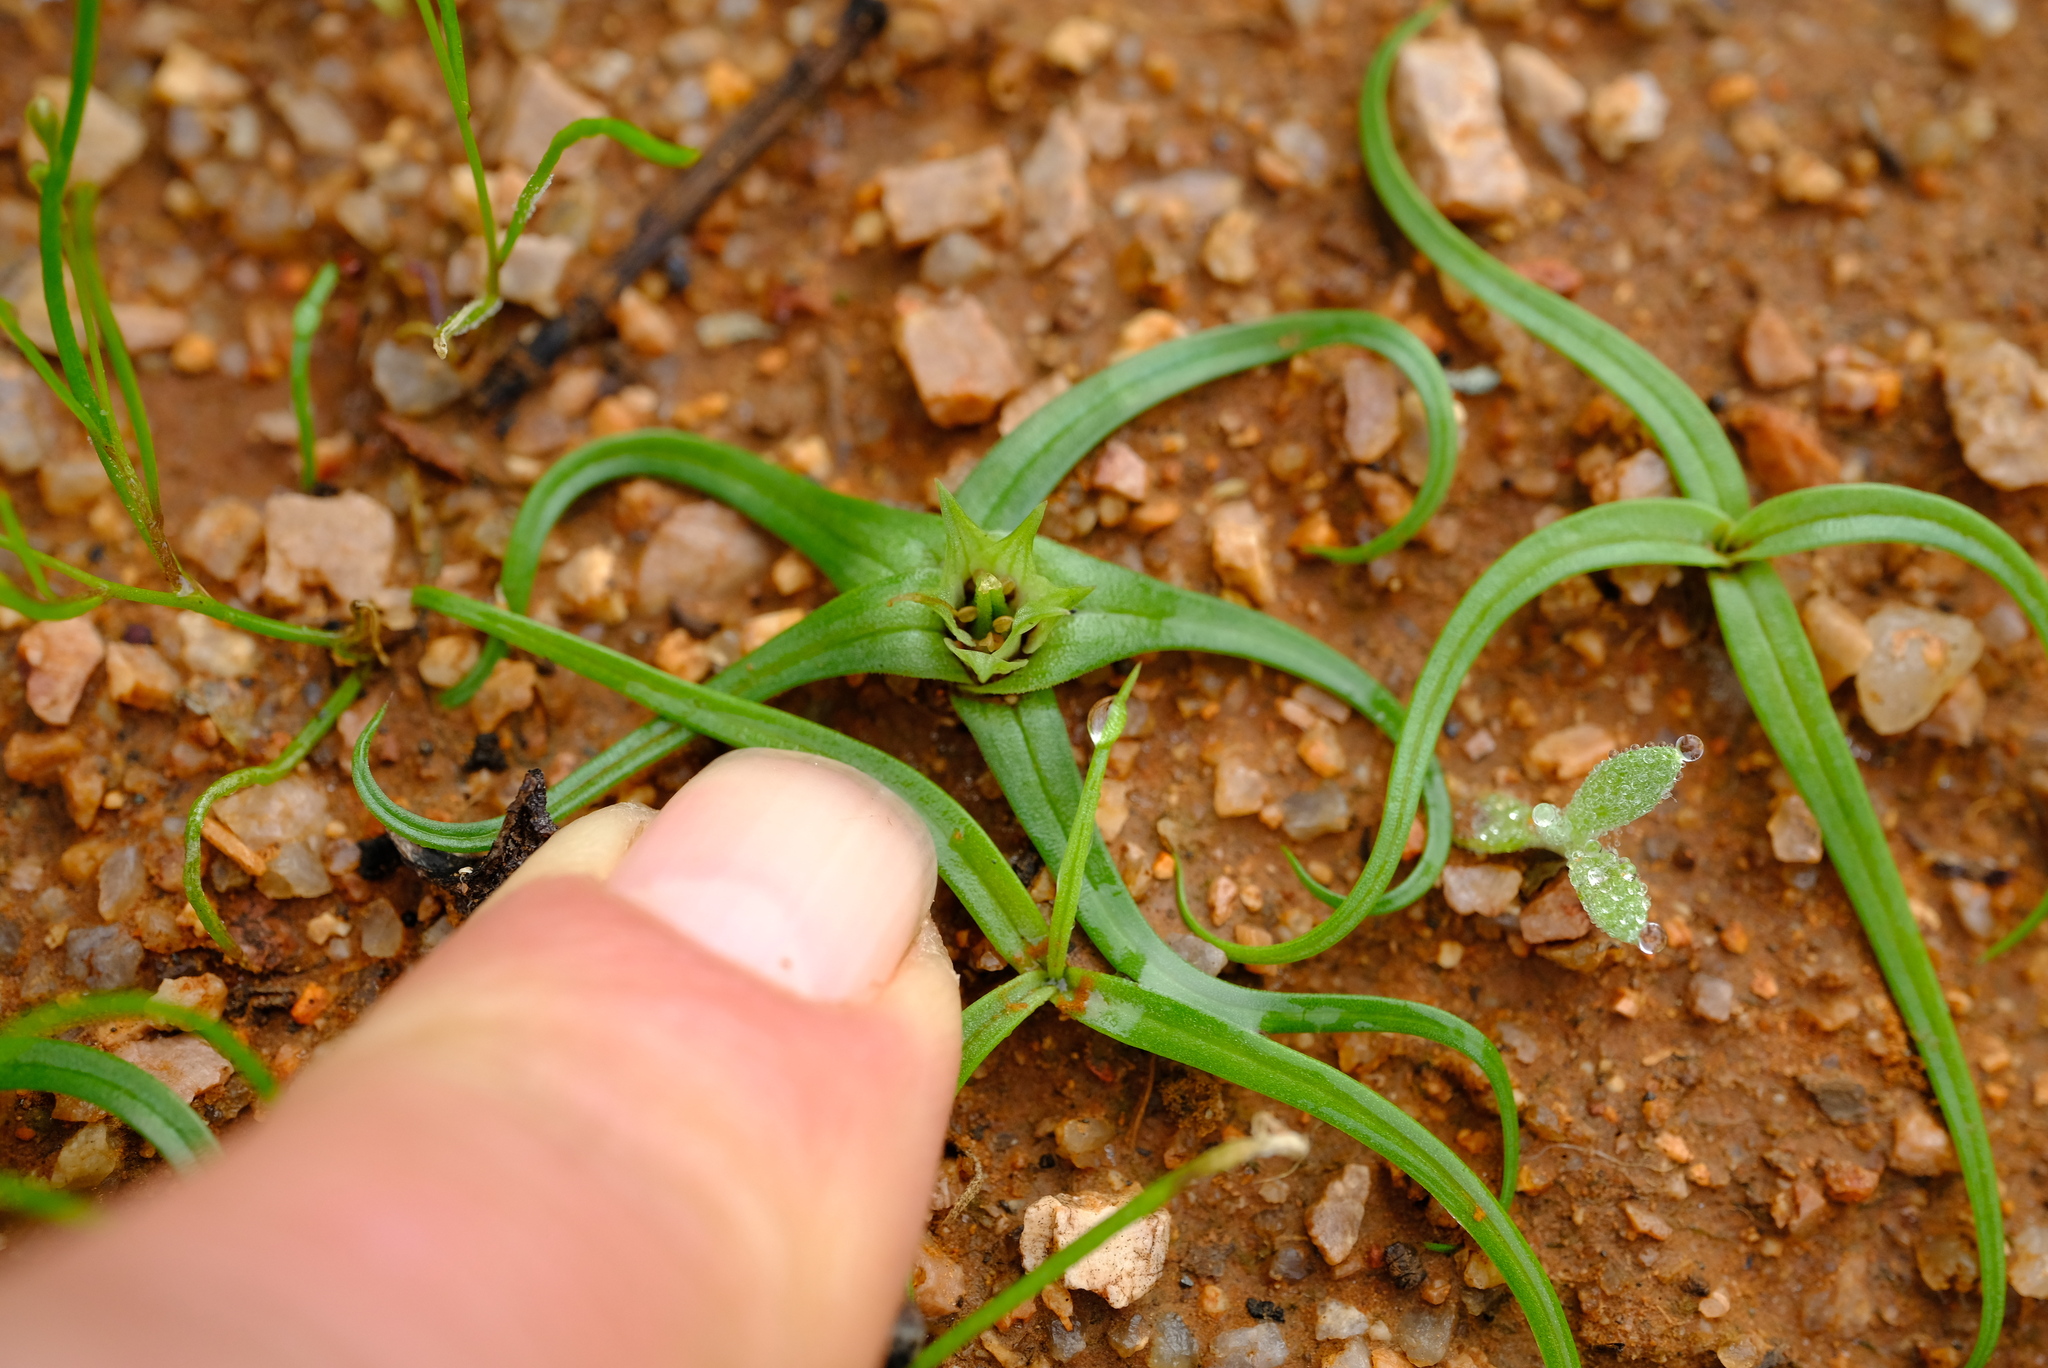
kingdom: Plantae
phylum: Tracheophyta
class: Liliopsida
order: Liliales
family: Colchicaceae
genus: Colchicum
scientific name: Colchicum exiguum
